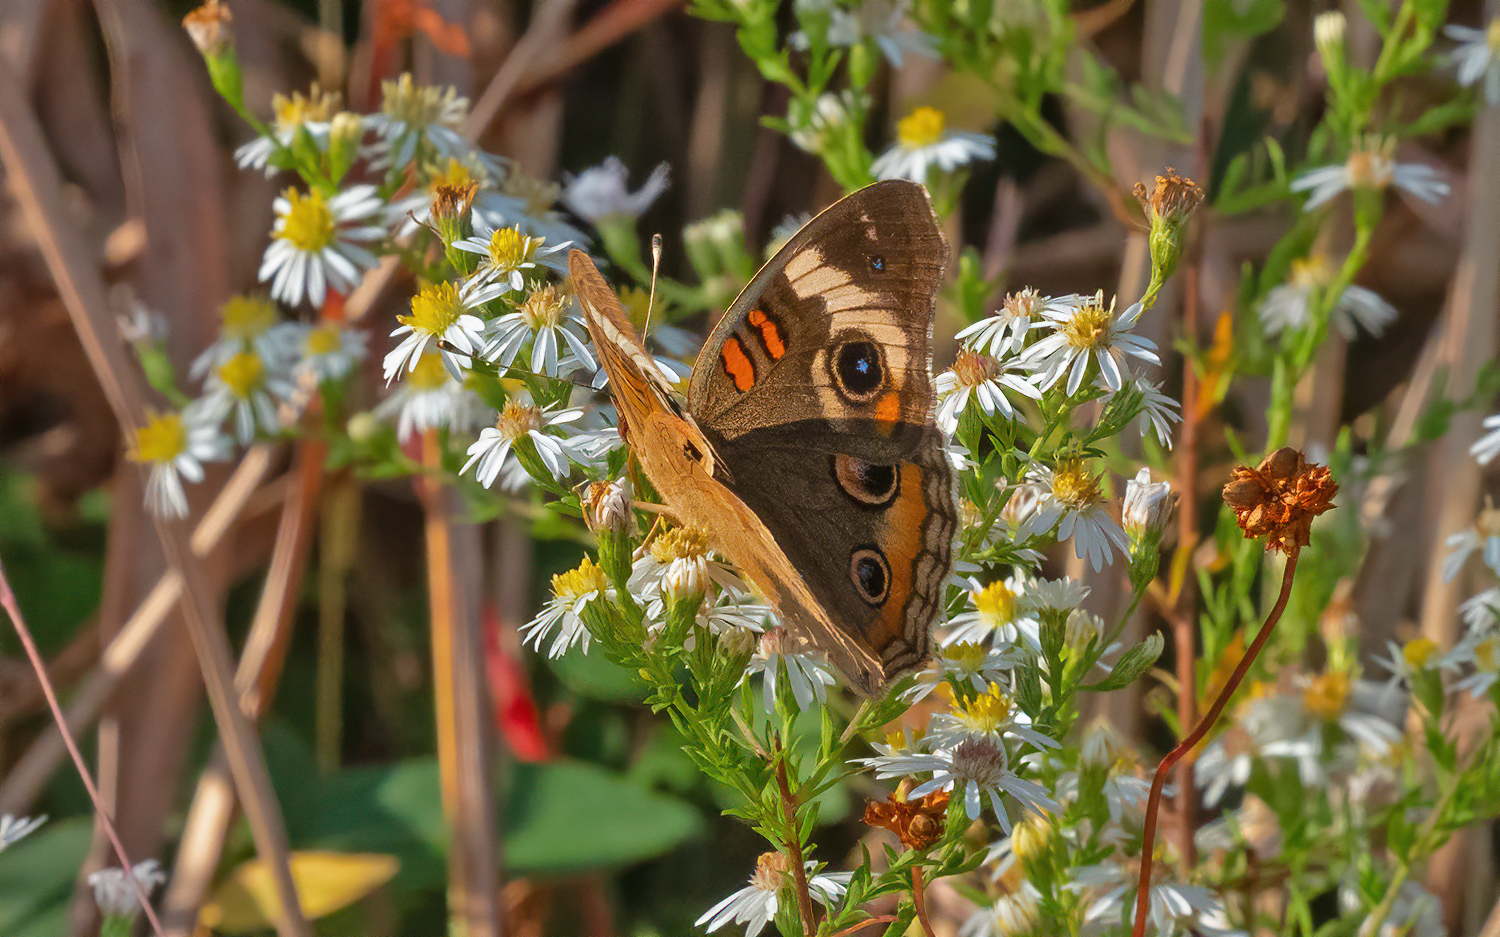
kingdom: Animalia
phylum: Arthropoda
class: Insecta
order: Lepidoptera
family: Nymphalidae
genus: Junonia
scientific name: Junonia coenia
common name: Common buckeye
